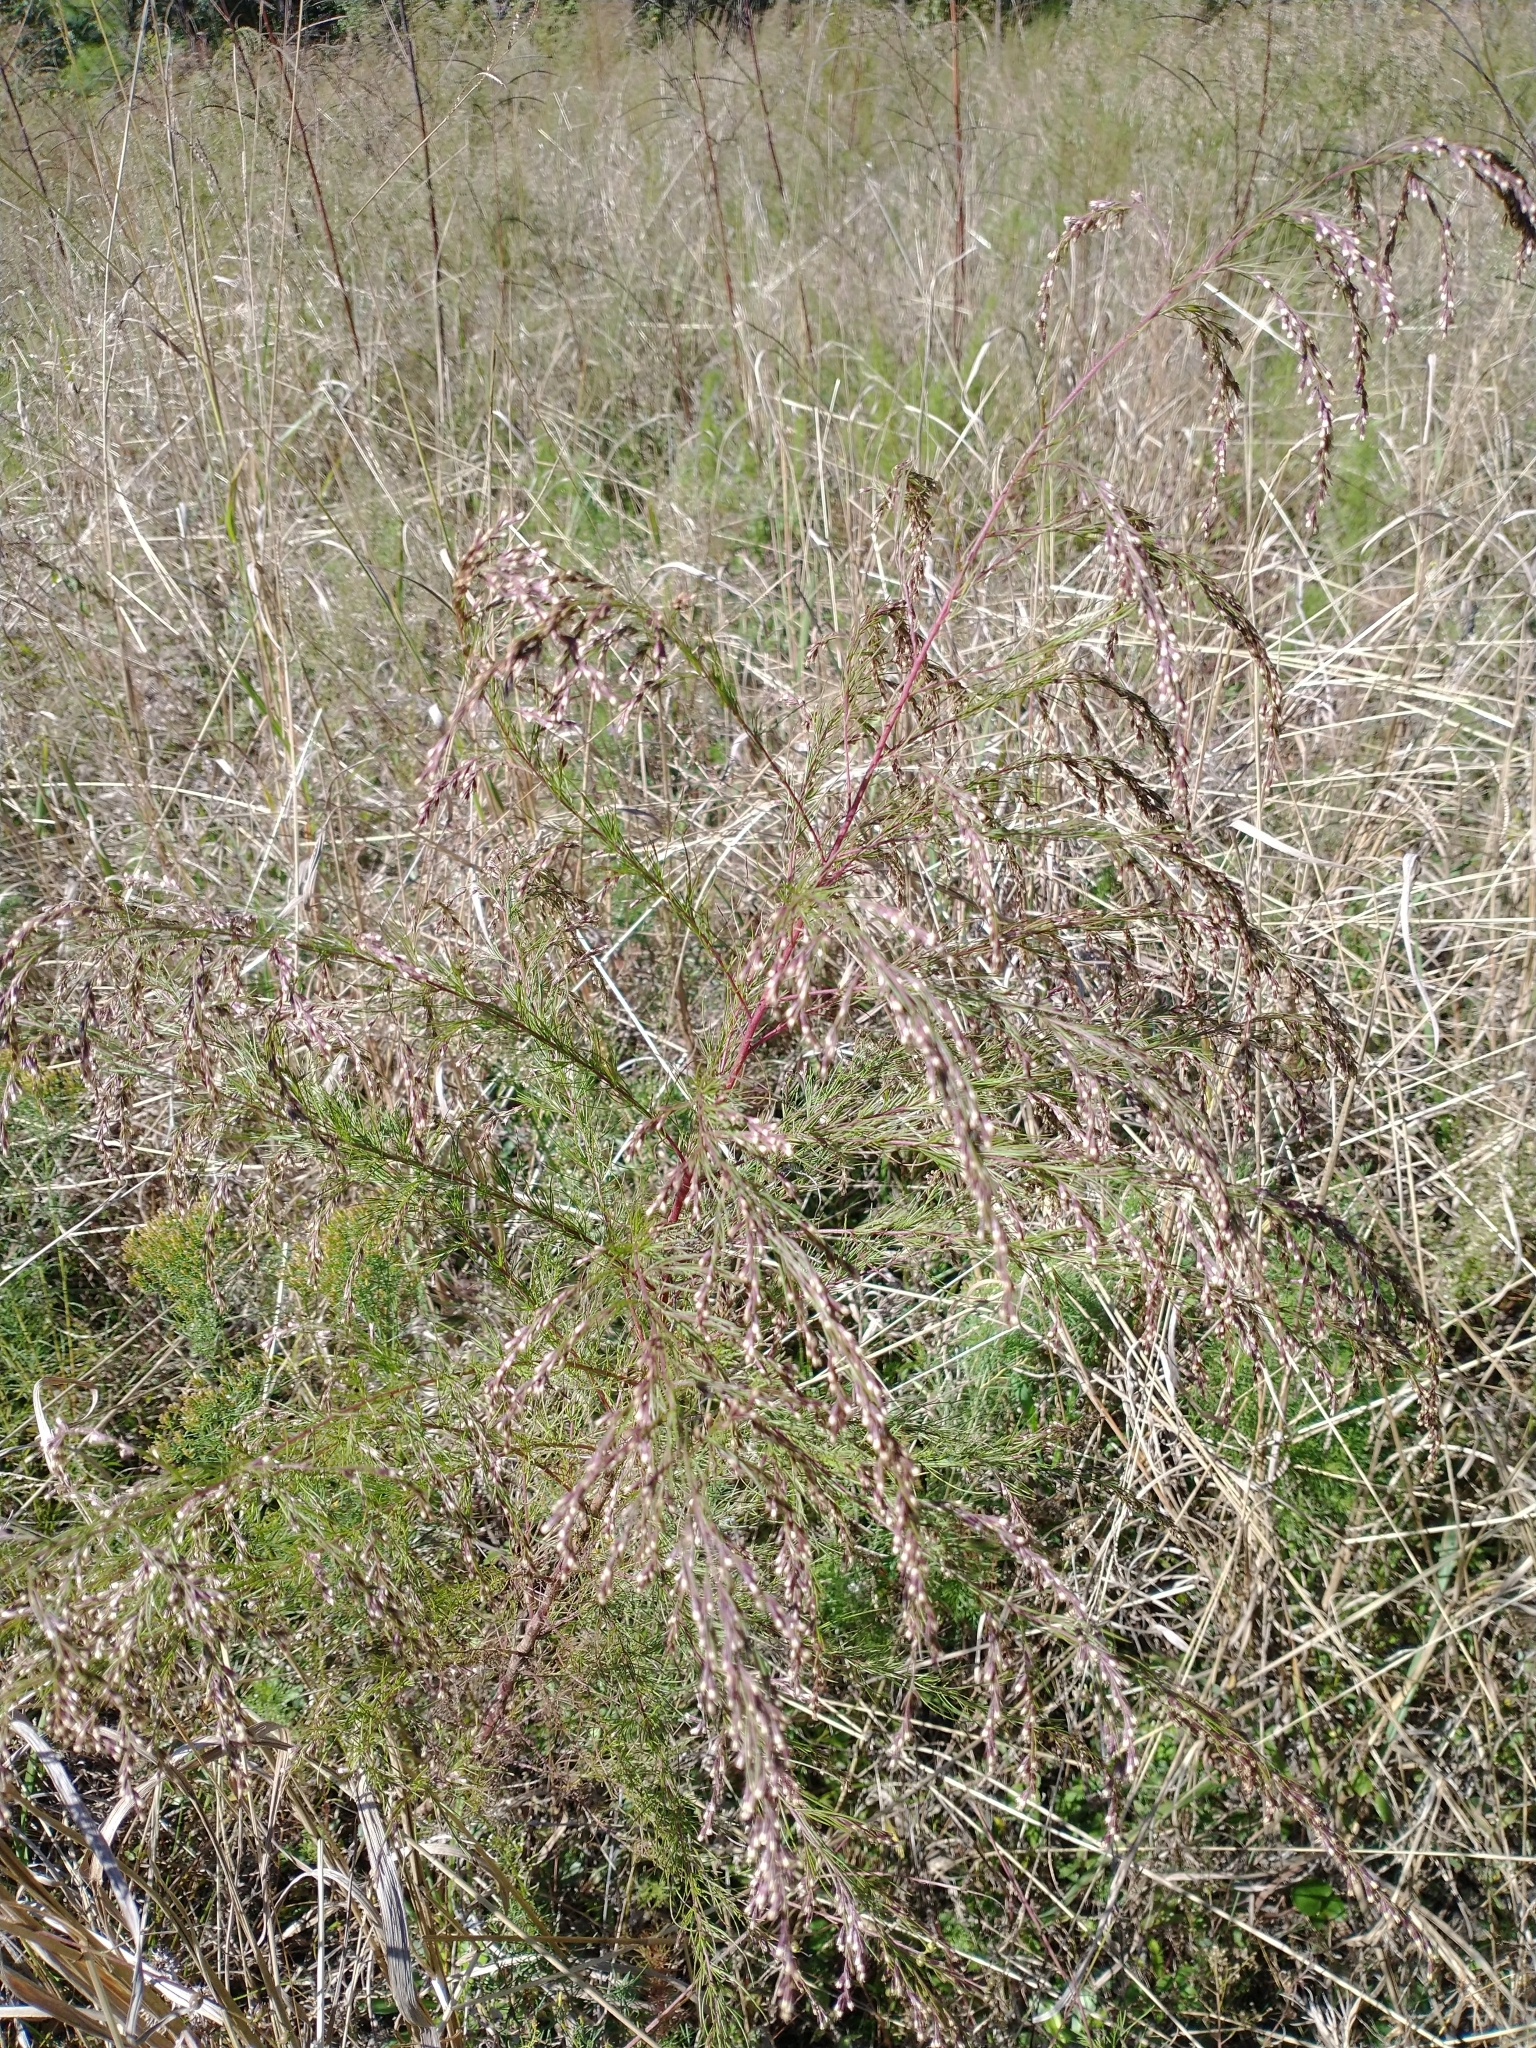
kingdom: Plantae
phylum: Tracheophyta
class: Magnoliopsida
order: Asterales
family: Asteraceae
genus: Eupatorium
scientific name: Eupatorium capillifolium
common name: Dog-fennel
